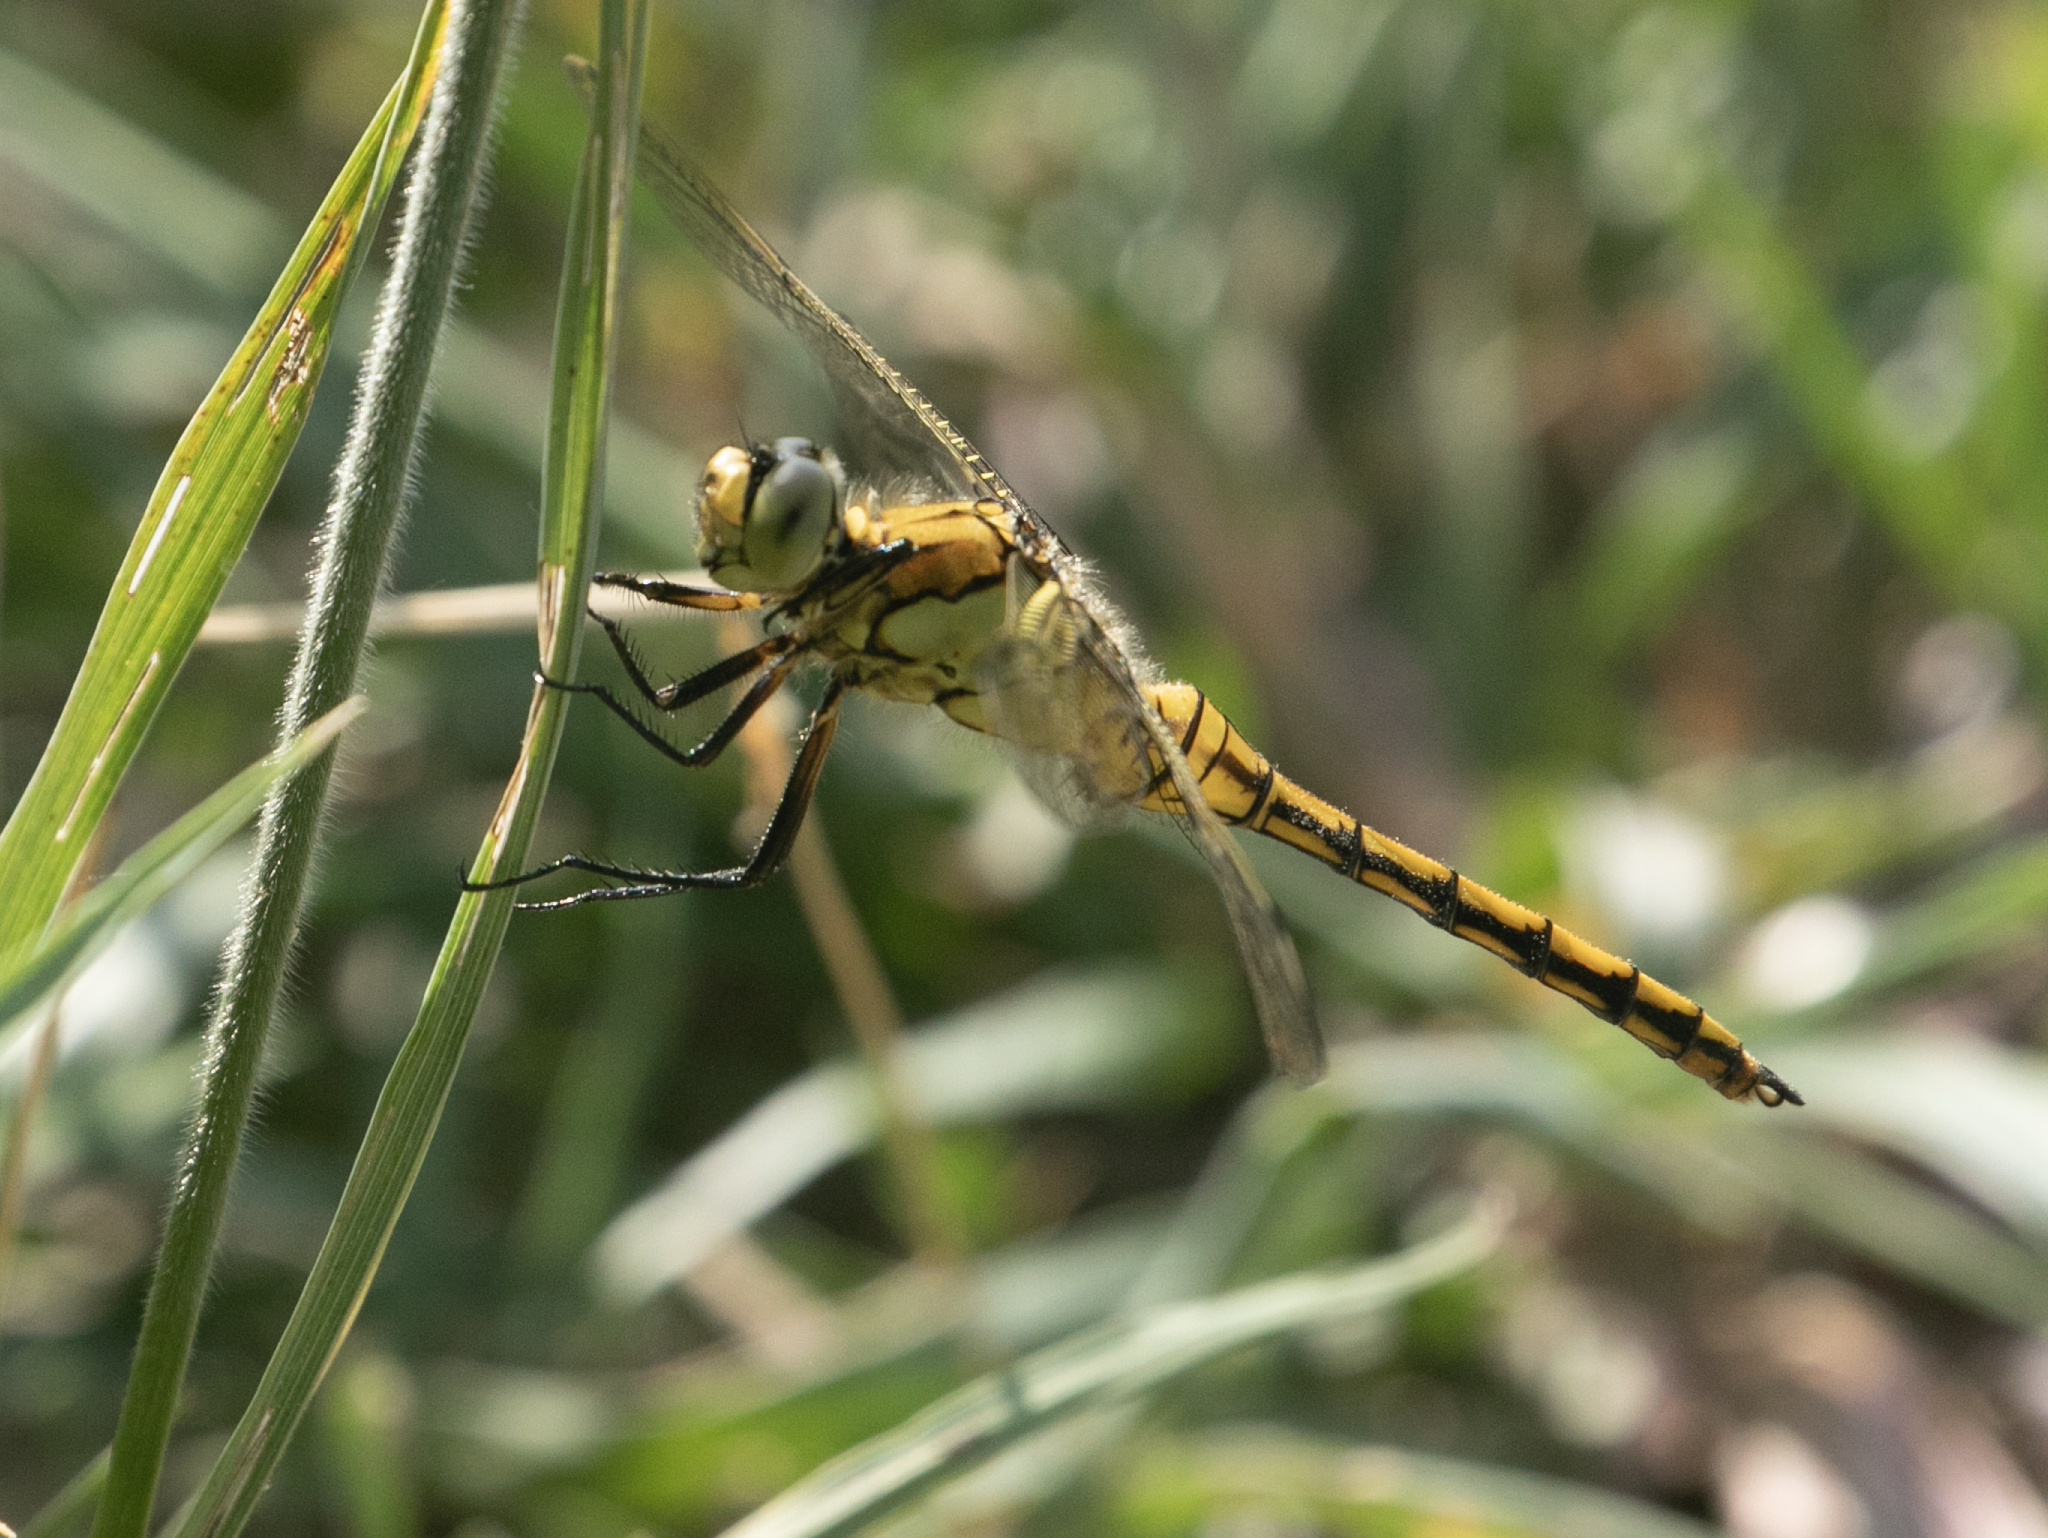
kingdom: Animalia
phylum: Arthropoda
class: Insecta
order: Odonata
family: Libellulidae
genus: Orthetrum
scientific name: Orthetrum cancellatum
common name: Black-tailed skimmer
